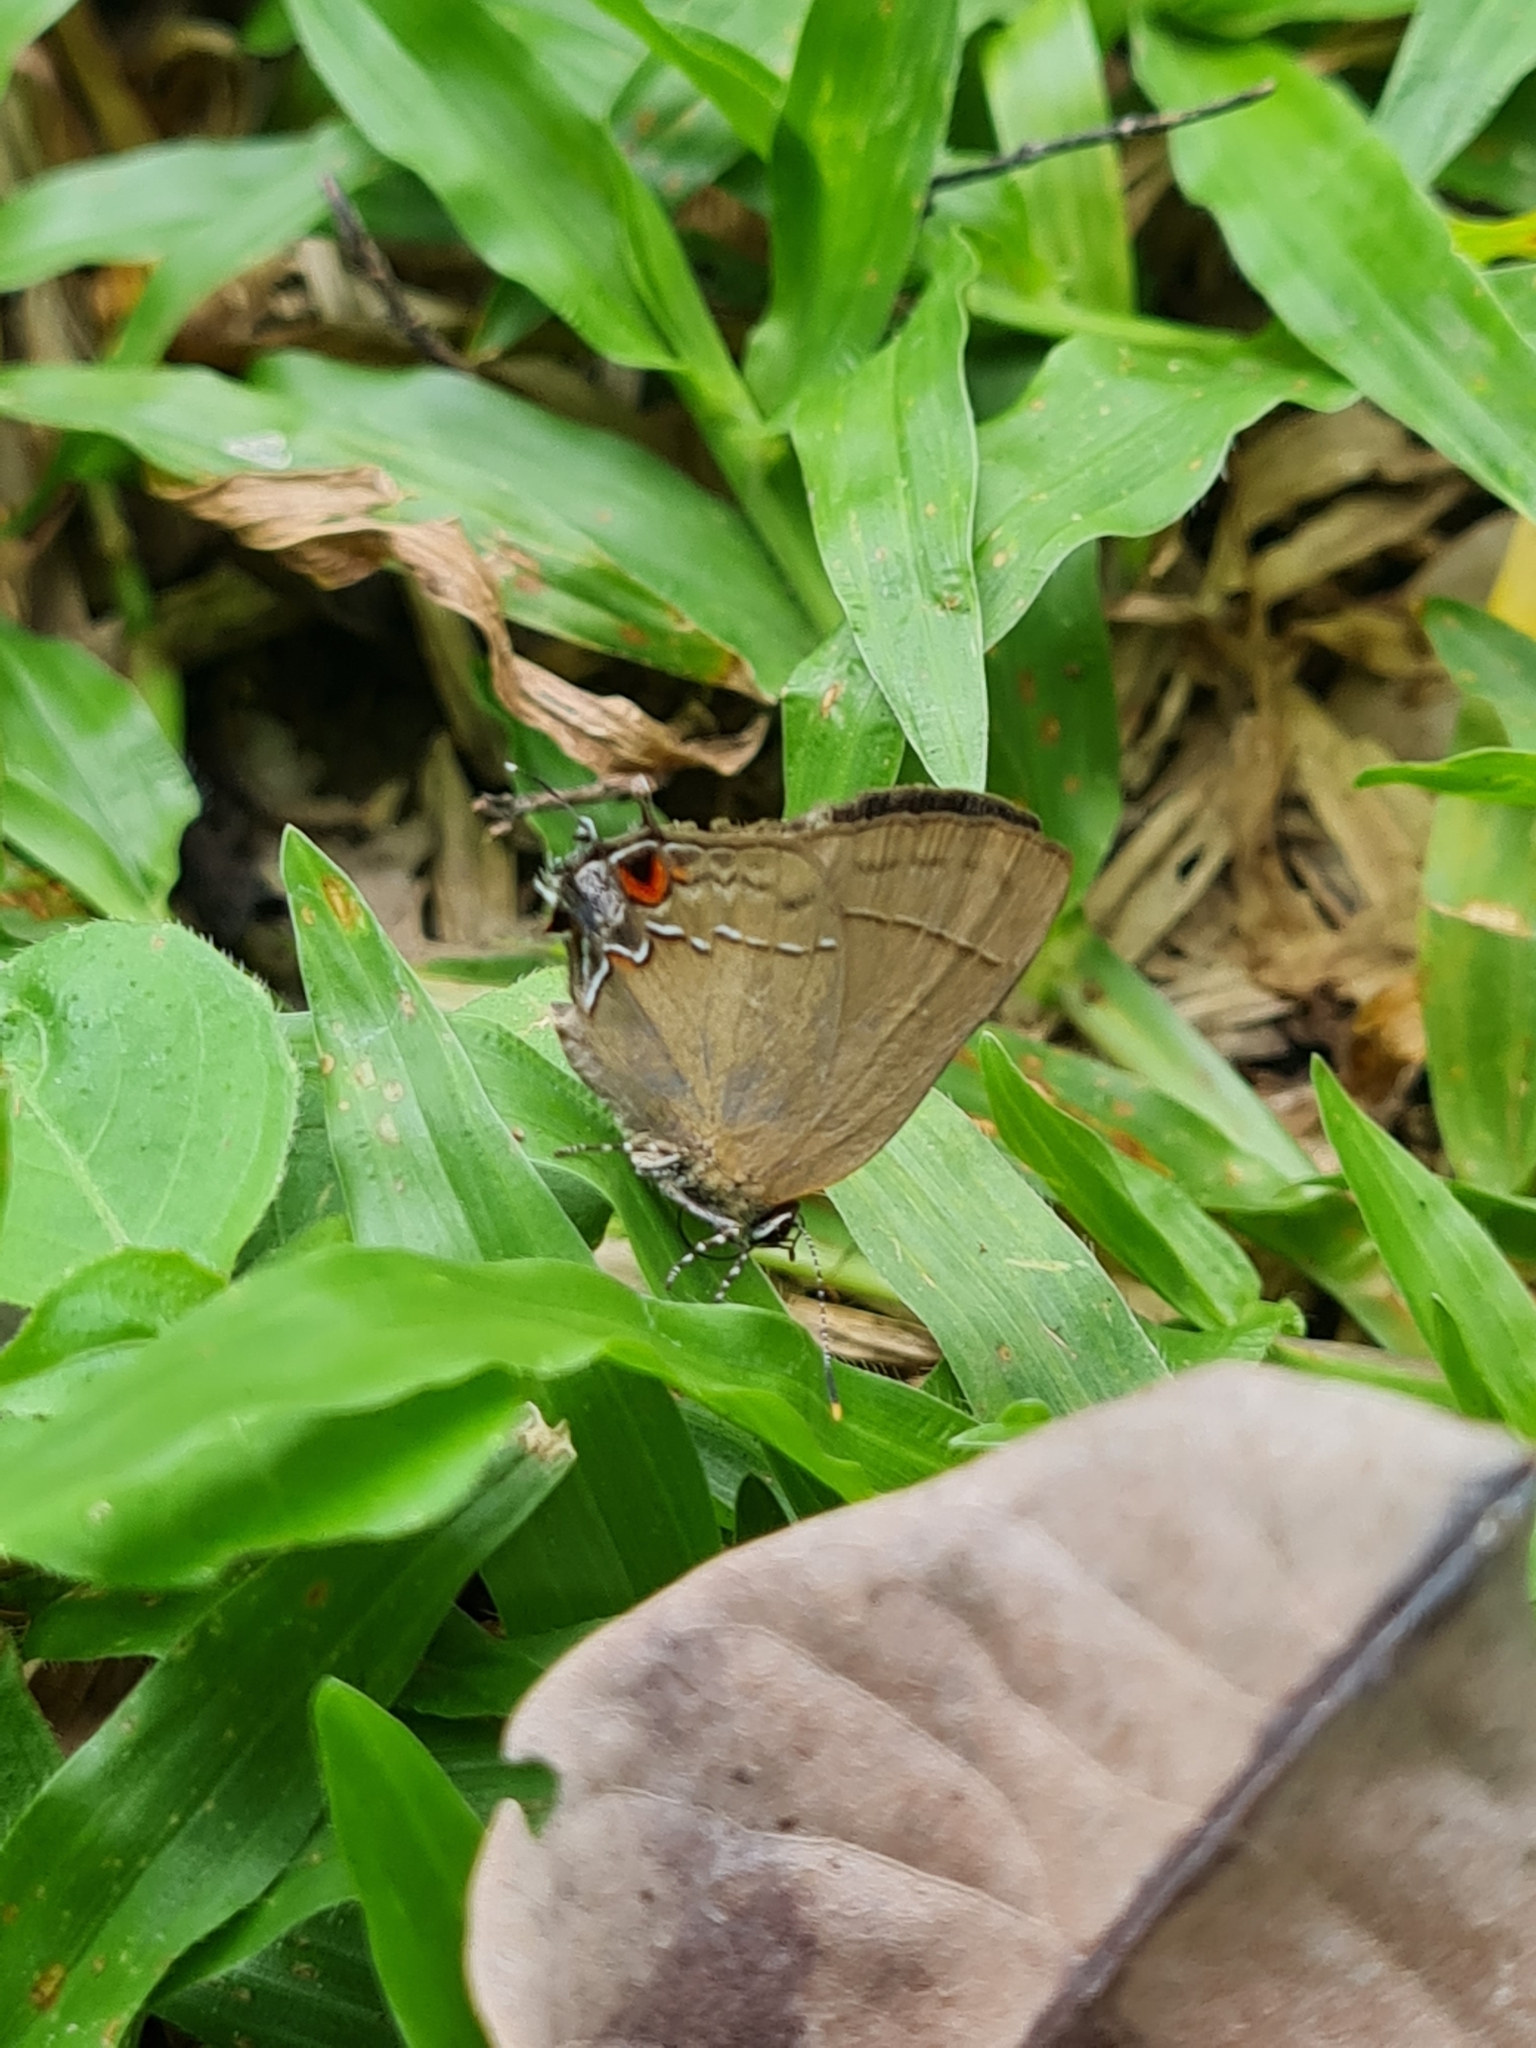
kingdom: Animalia
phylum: Arthropoda
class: Insecta
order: Lepidoptera
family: Lycaenidae
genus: Ziegleria
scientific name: Ziegleria hesperitis
